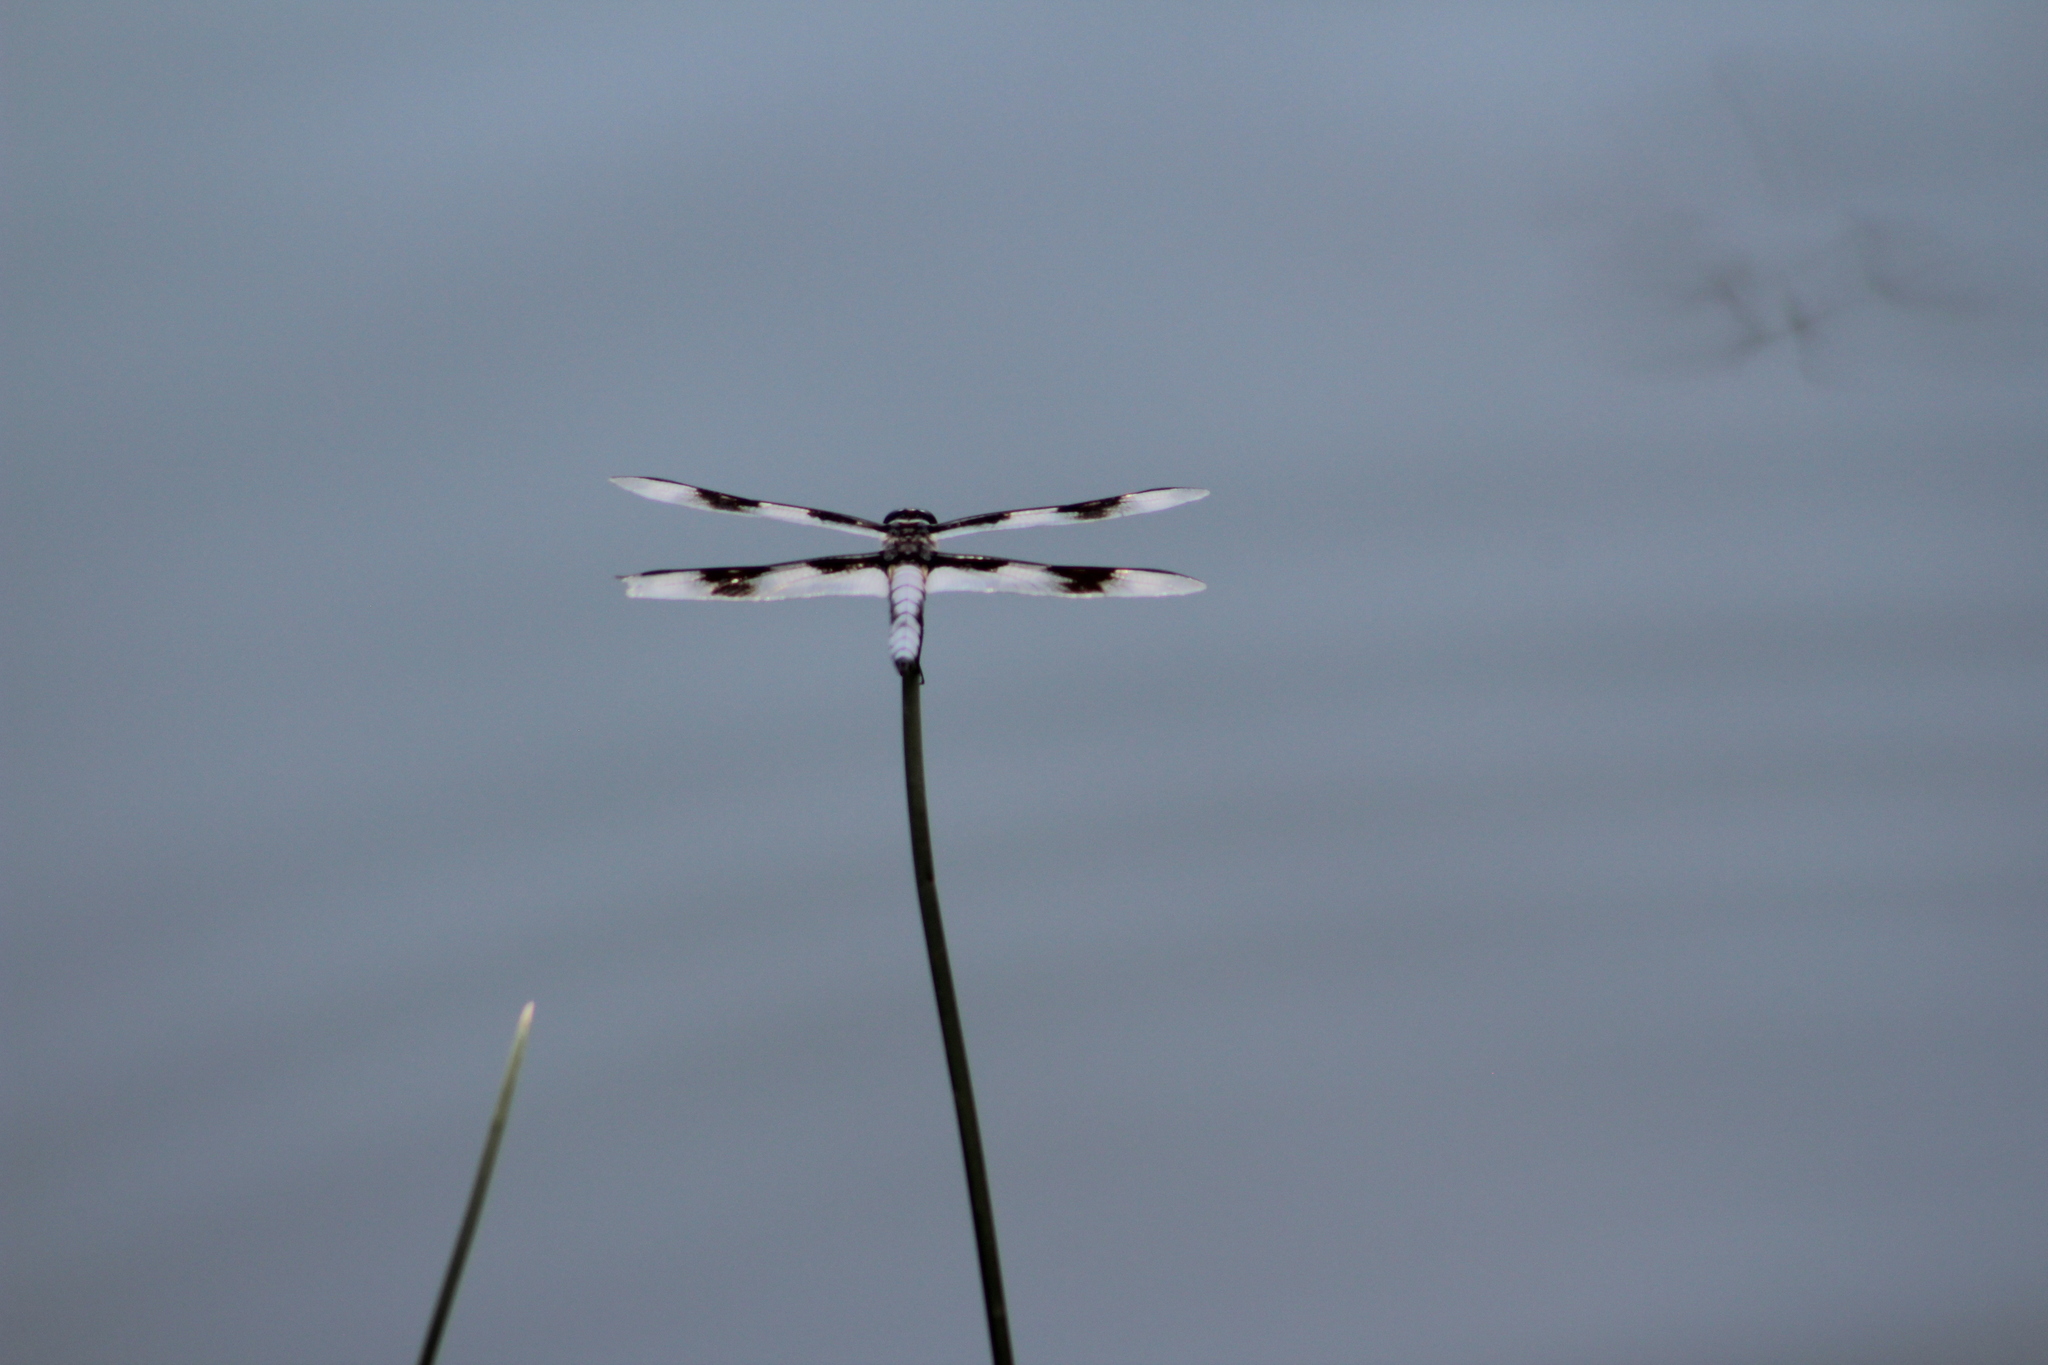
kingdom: Animalia
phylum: Arthropoda
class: Insecta
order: Odonata
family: Libellulidae
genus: Libellula
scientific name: Libellula forensis
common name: Eight-spotted skimmer
